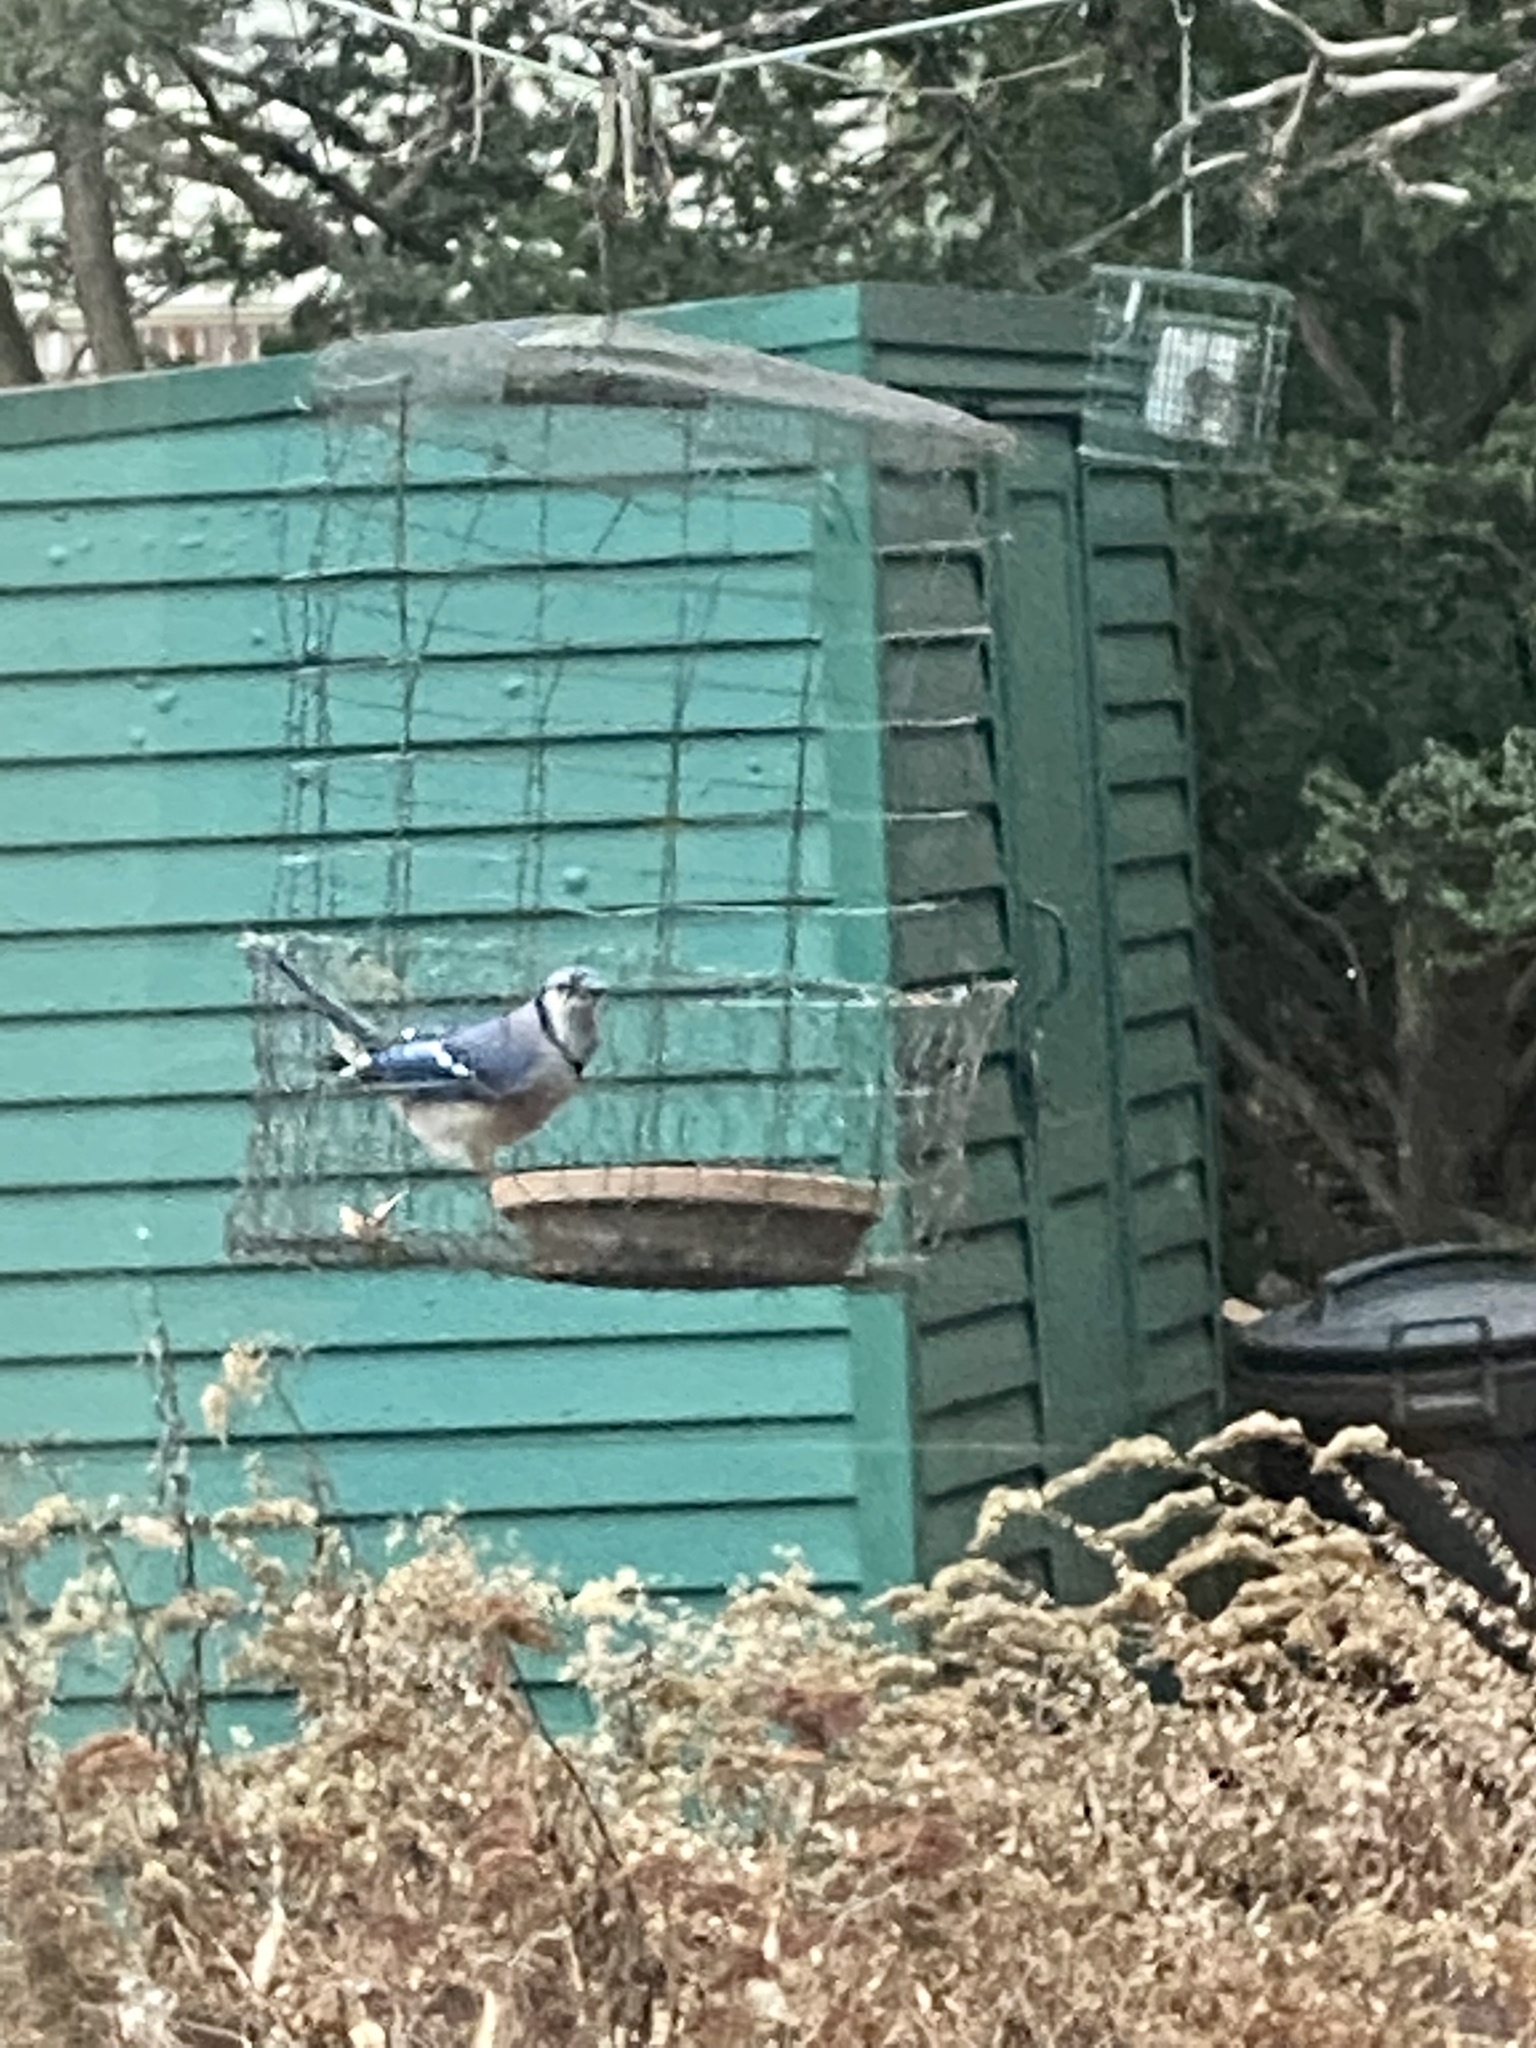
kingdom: Animalia
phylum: Chordata
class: Aves
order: Passeriformes
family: Corvidae
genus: Cyanocitta
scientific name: Cyanocitta cristata
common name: Blue jay
